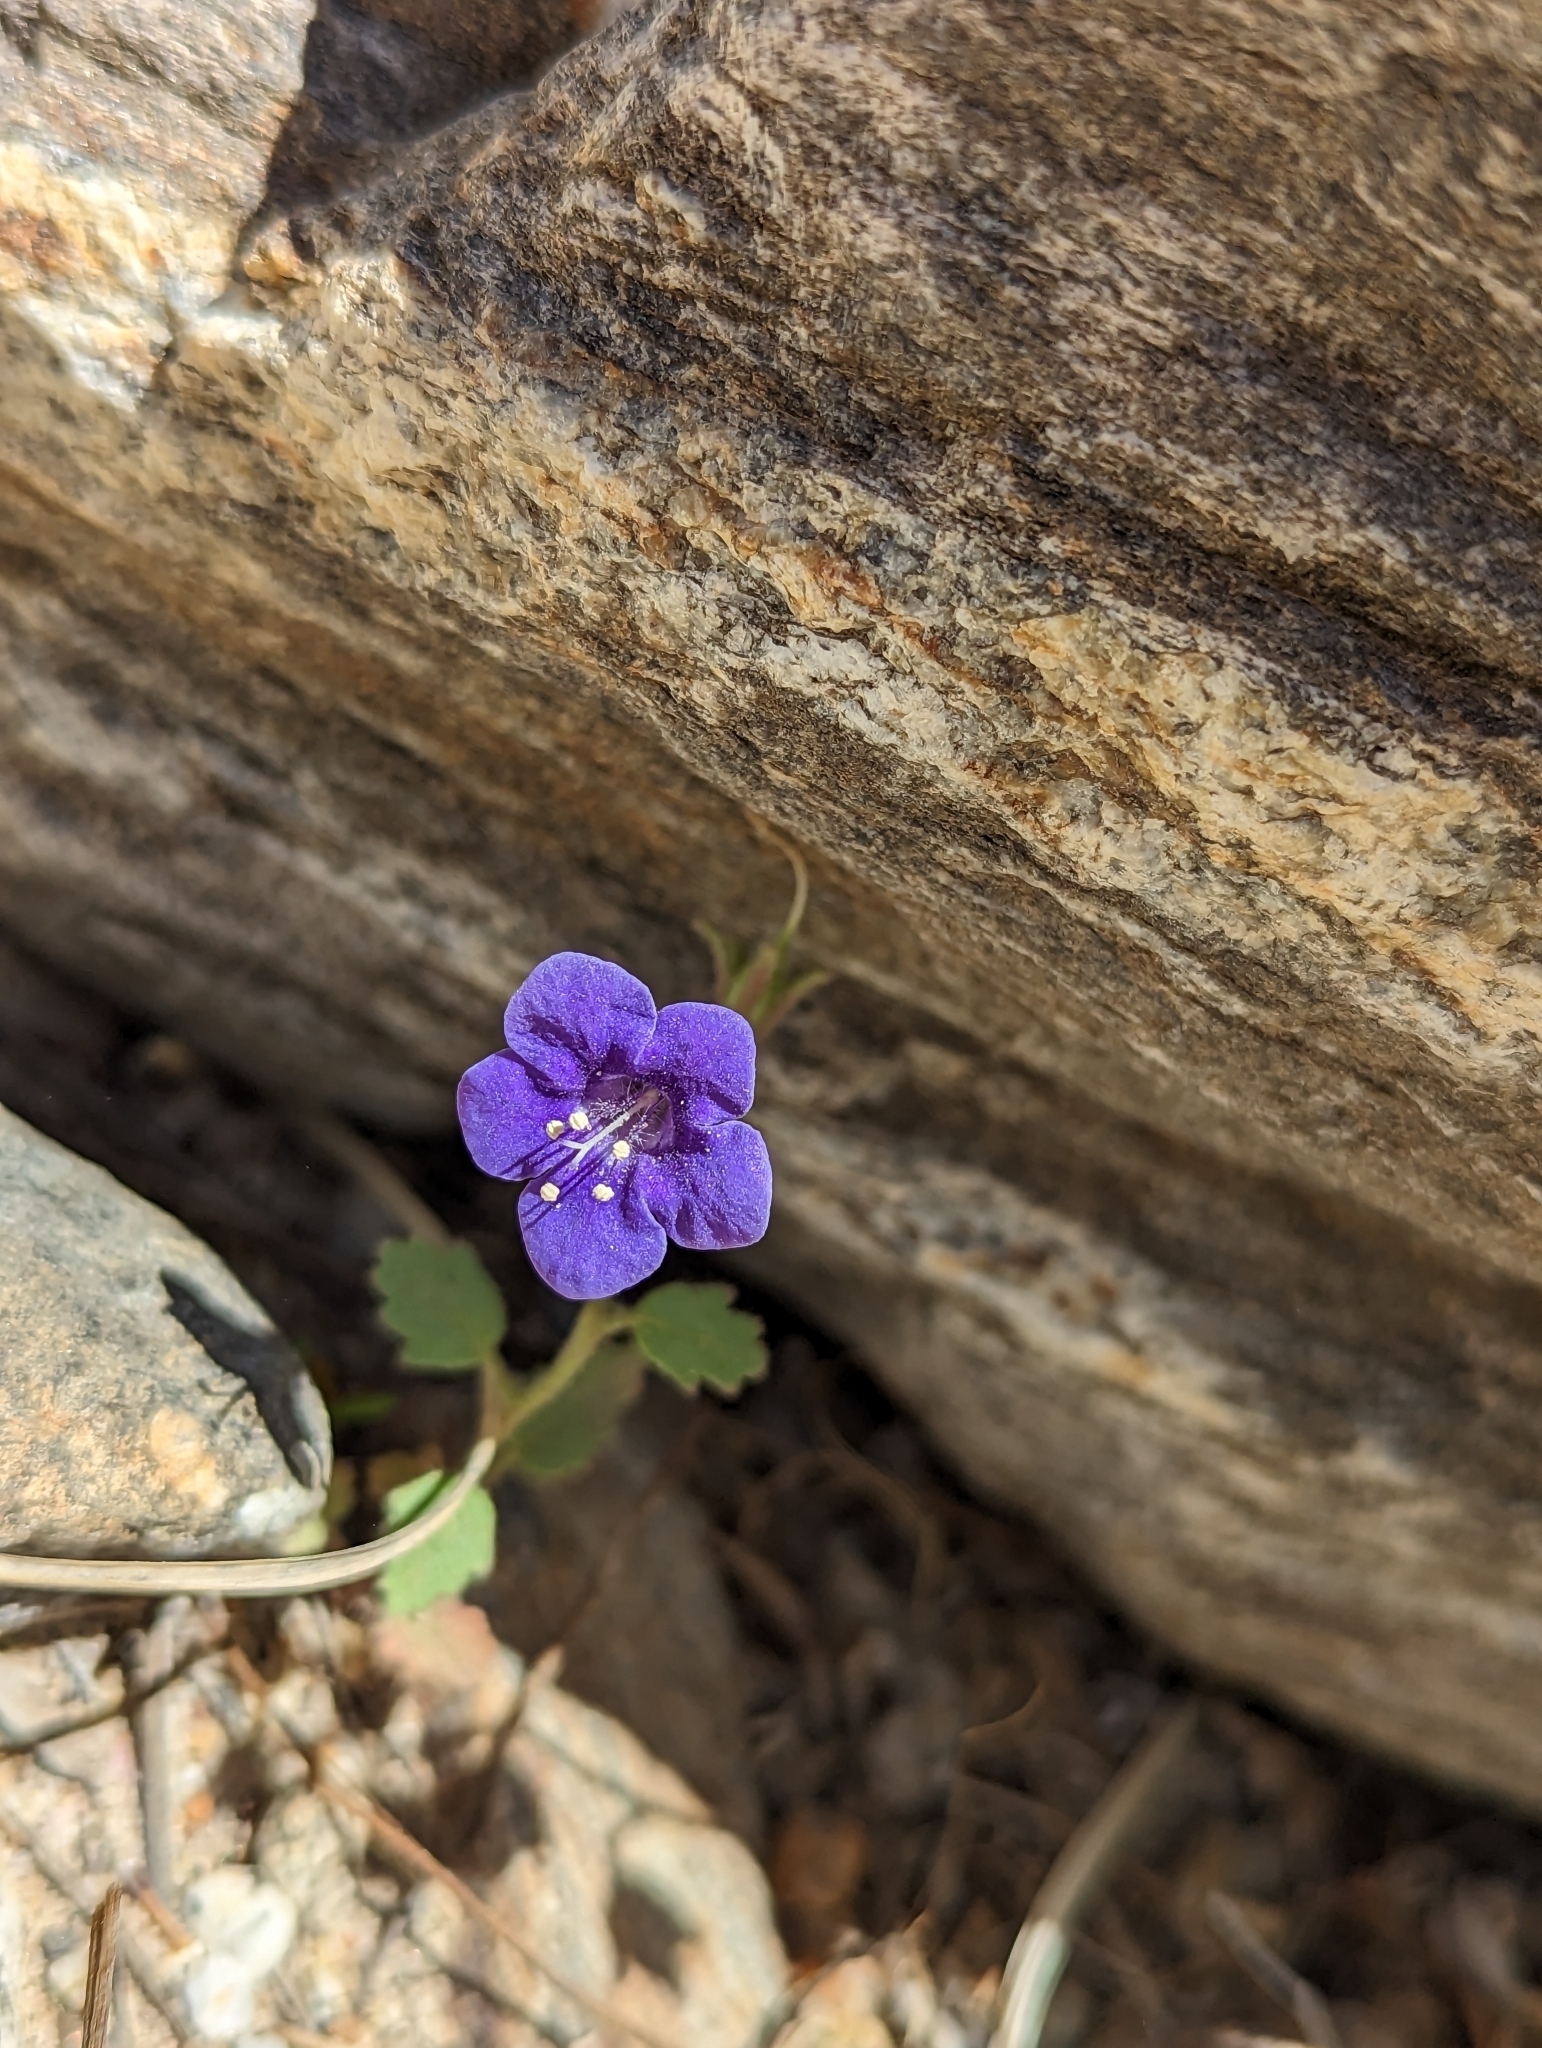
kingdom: Plantae
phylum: Tracheophyta
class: Magnoliopsida
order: Boraginales
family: Hydrophyllaceae
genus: Phacelia
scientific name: Phacelia minor
